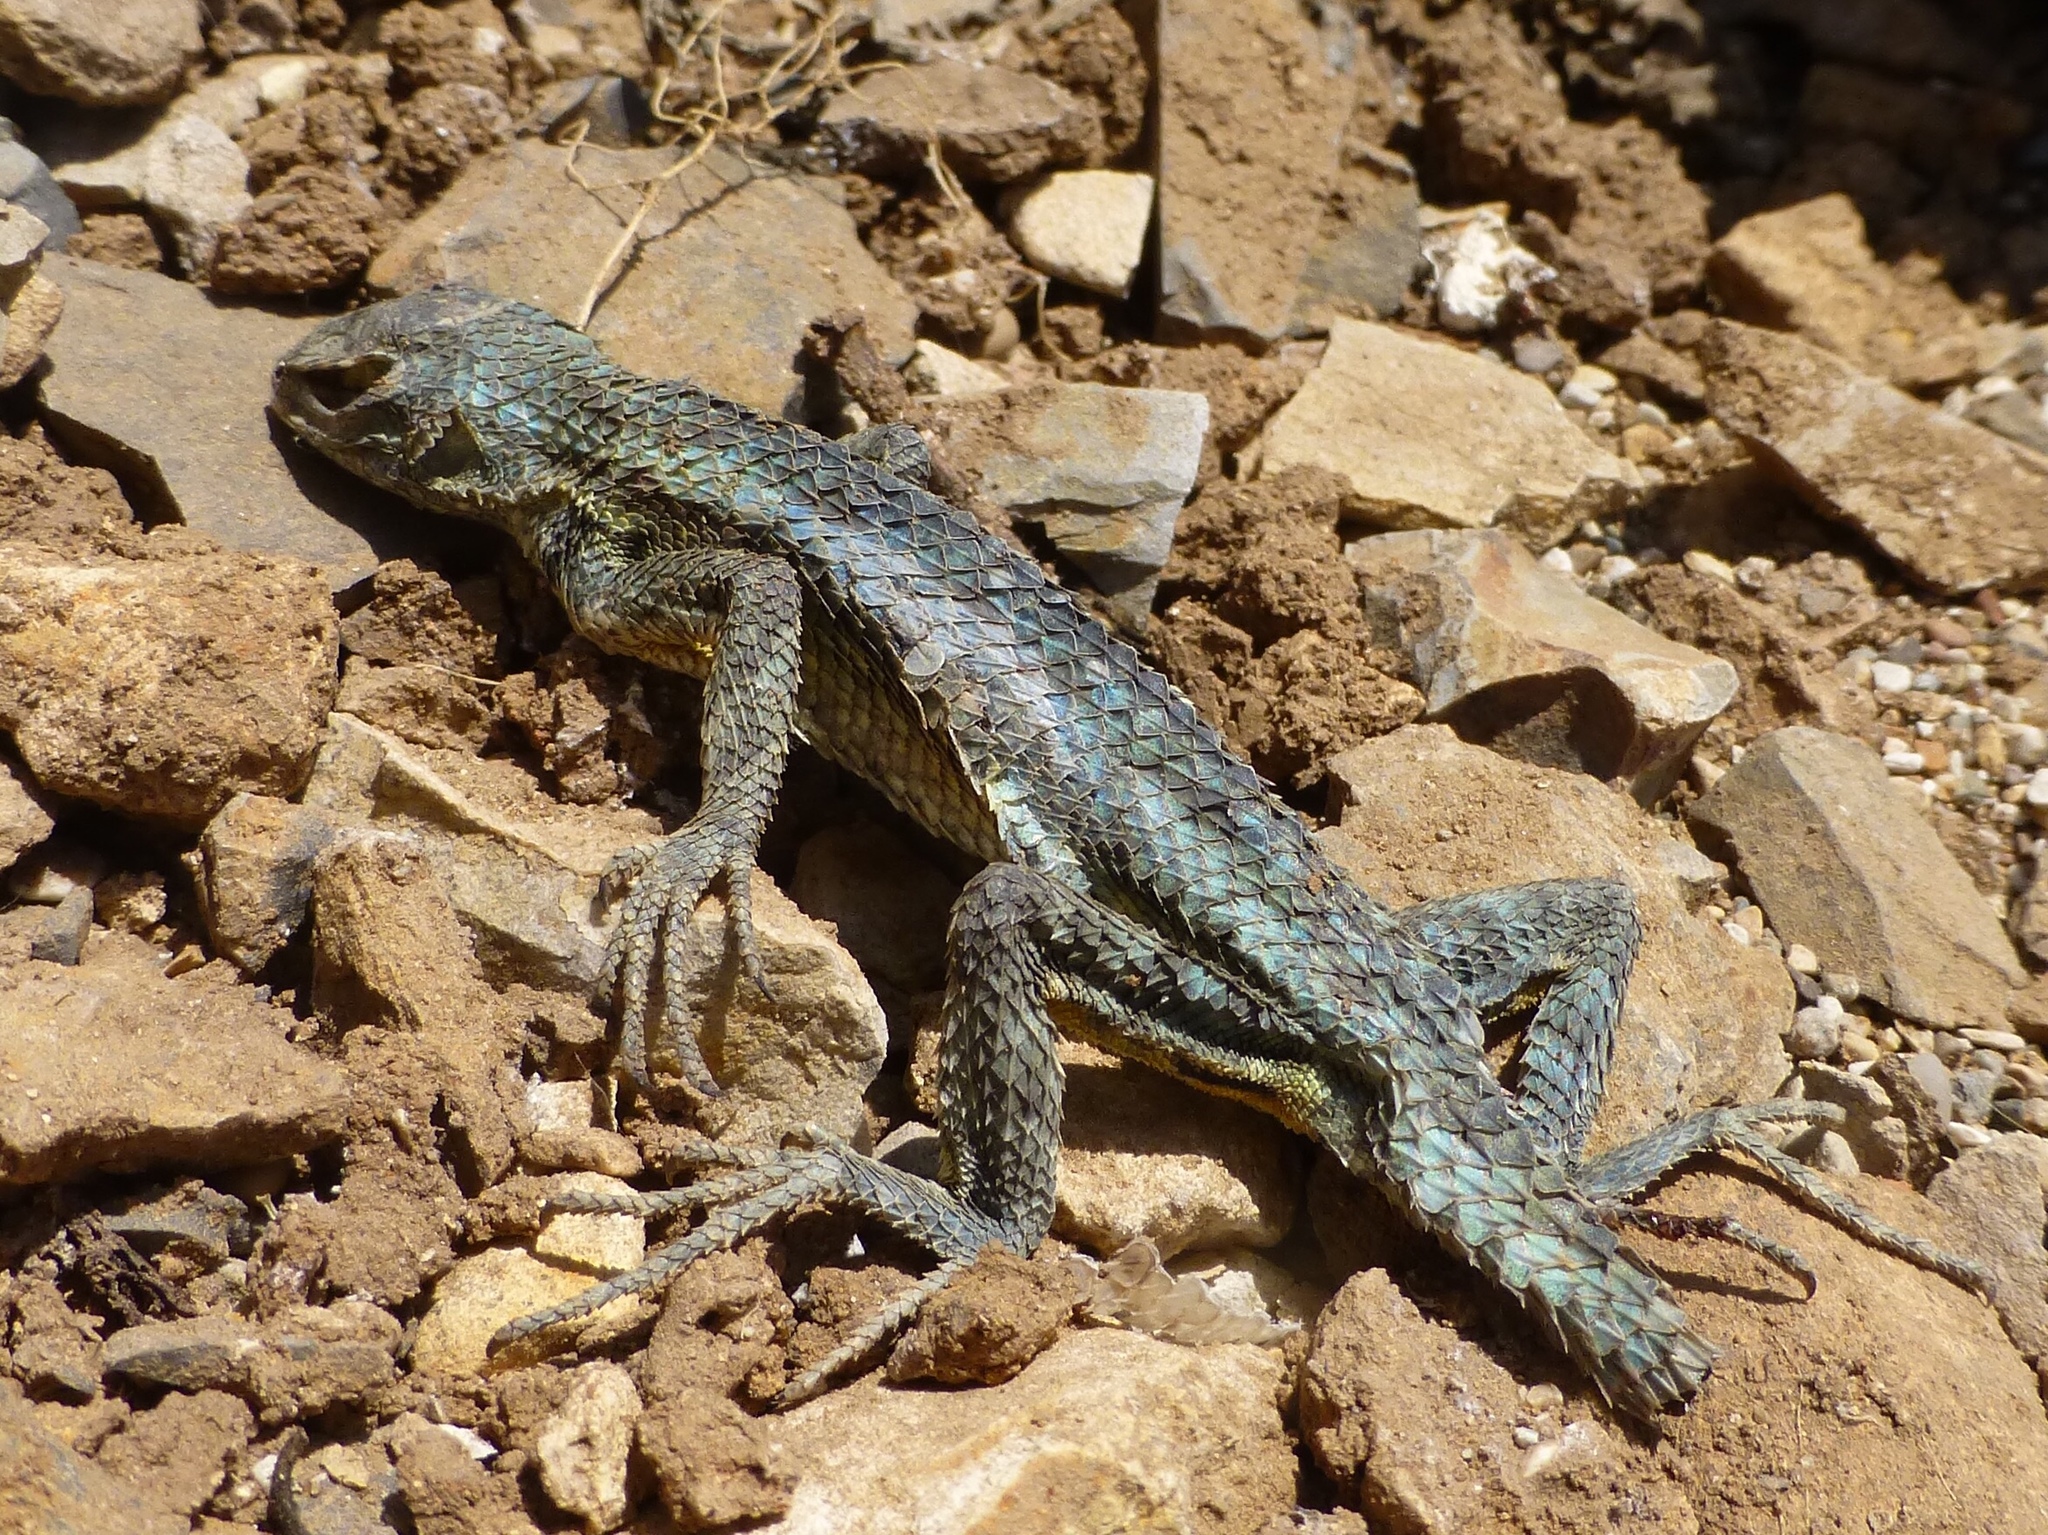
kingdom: Animalia
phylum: Chordata
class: Squamata
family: Phrynosomatidae
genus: Sceloporus
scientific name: Sceloporus occidentalis
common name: Western fence lizard
